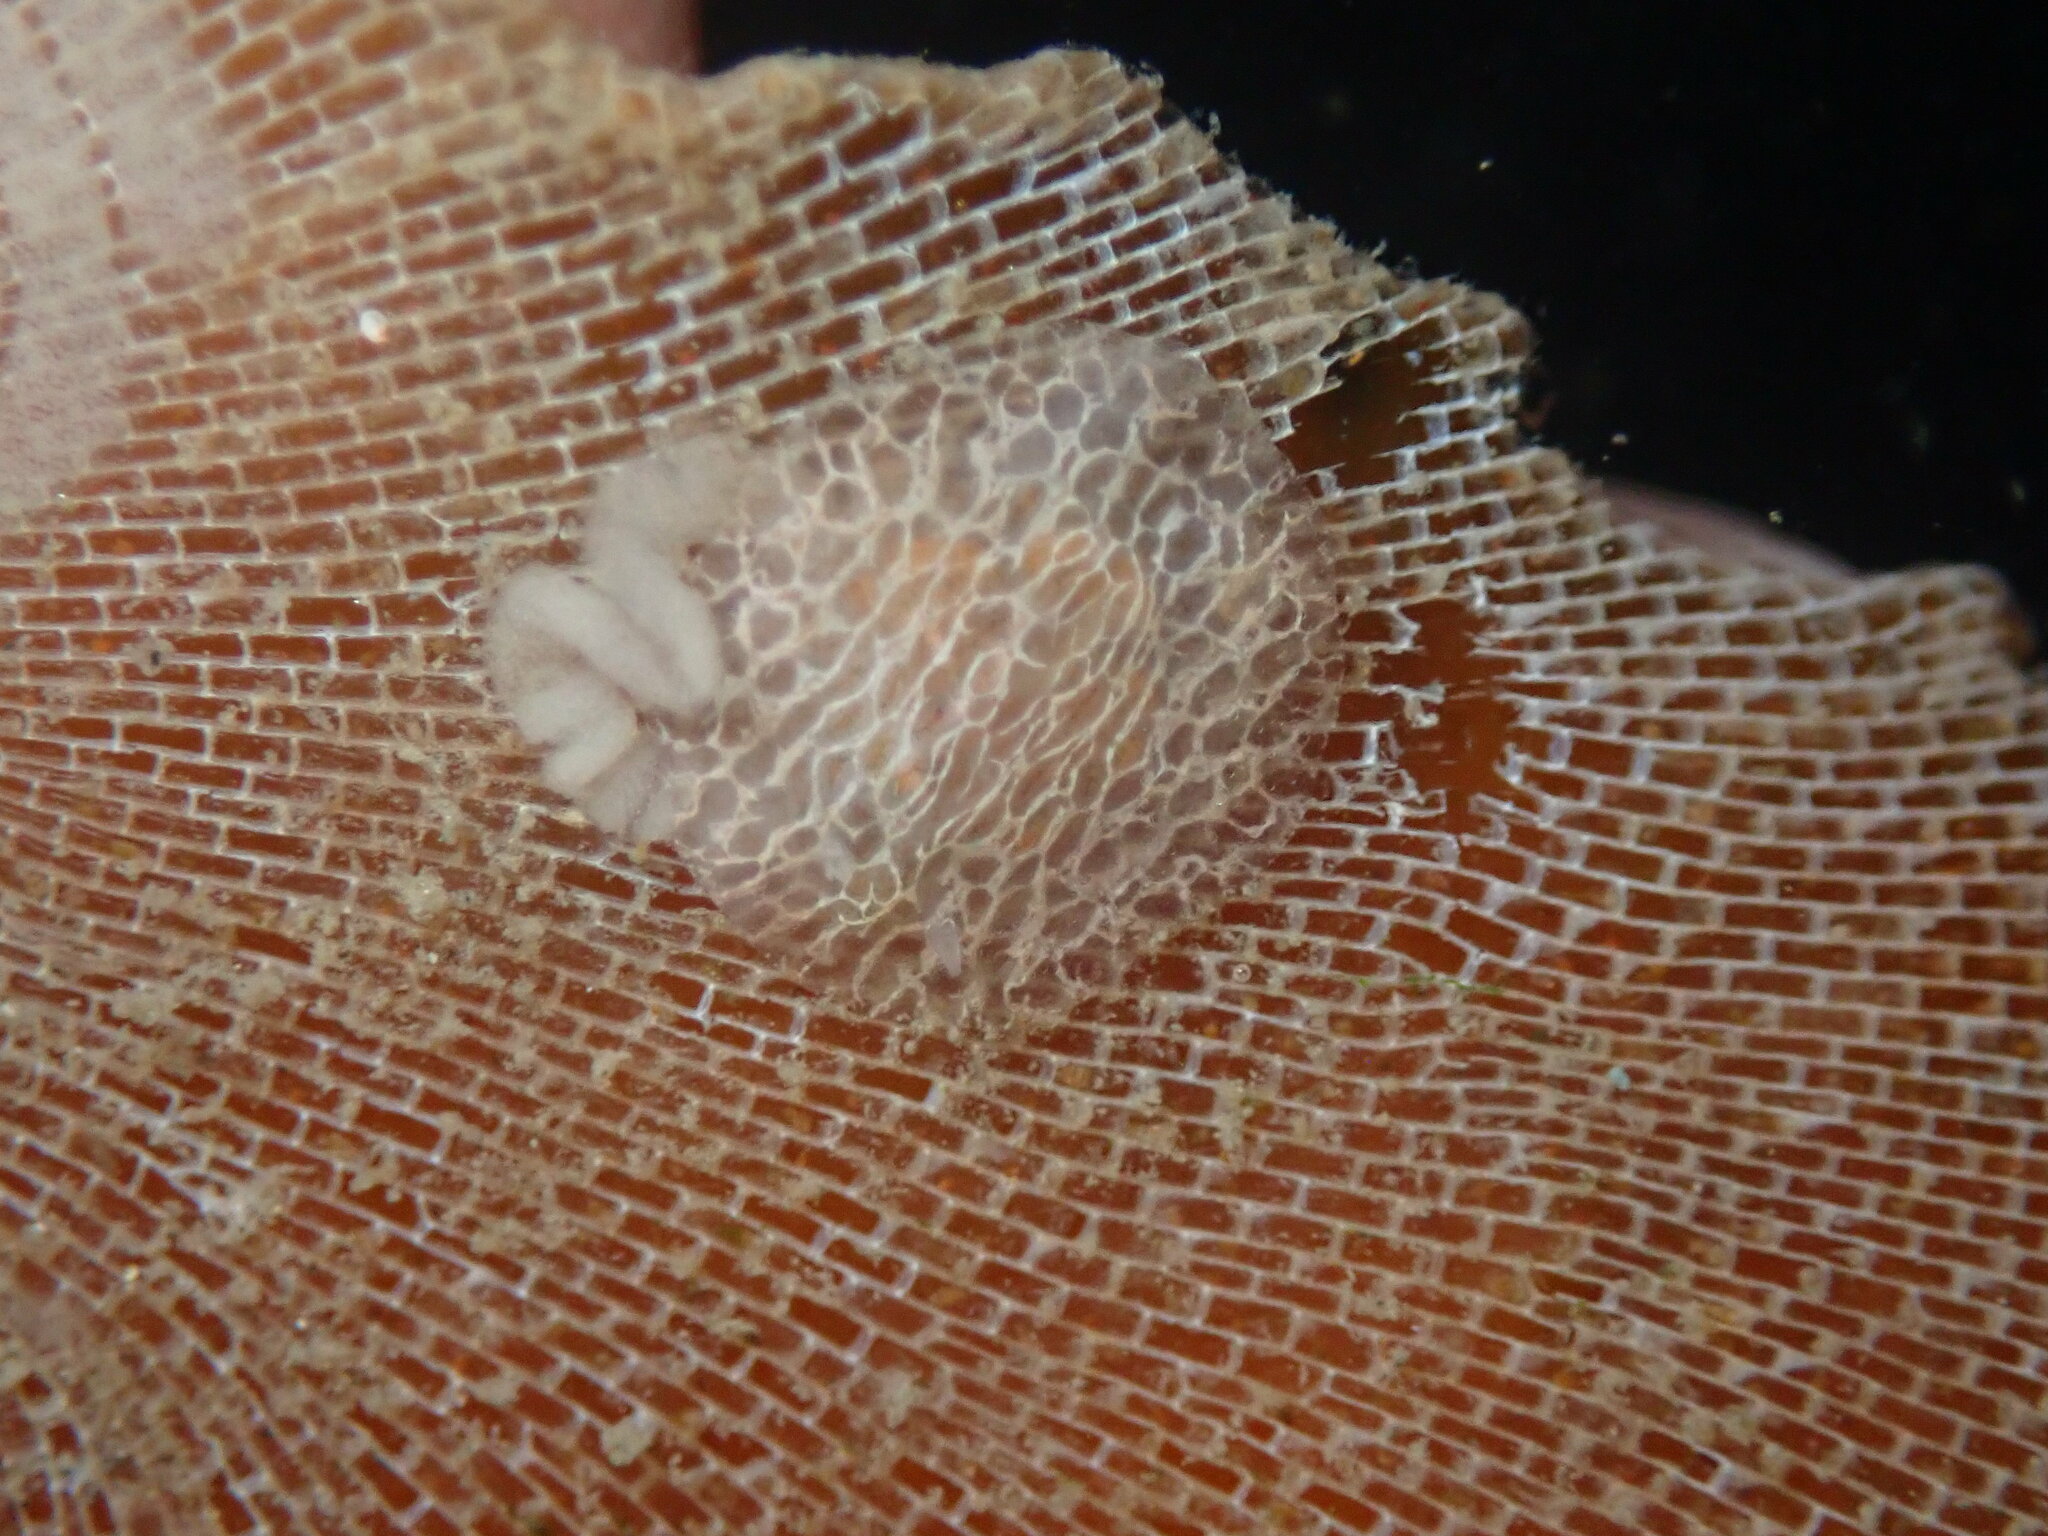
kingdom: Animalia
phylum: Mollusca
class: Gastropoda
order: Nudibranchia
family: Corambidae
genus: Corambe
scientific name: Corambe steinbergae
